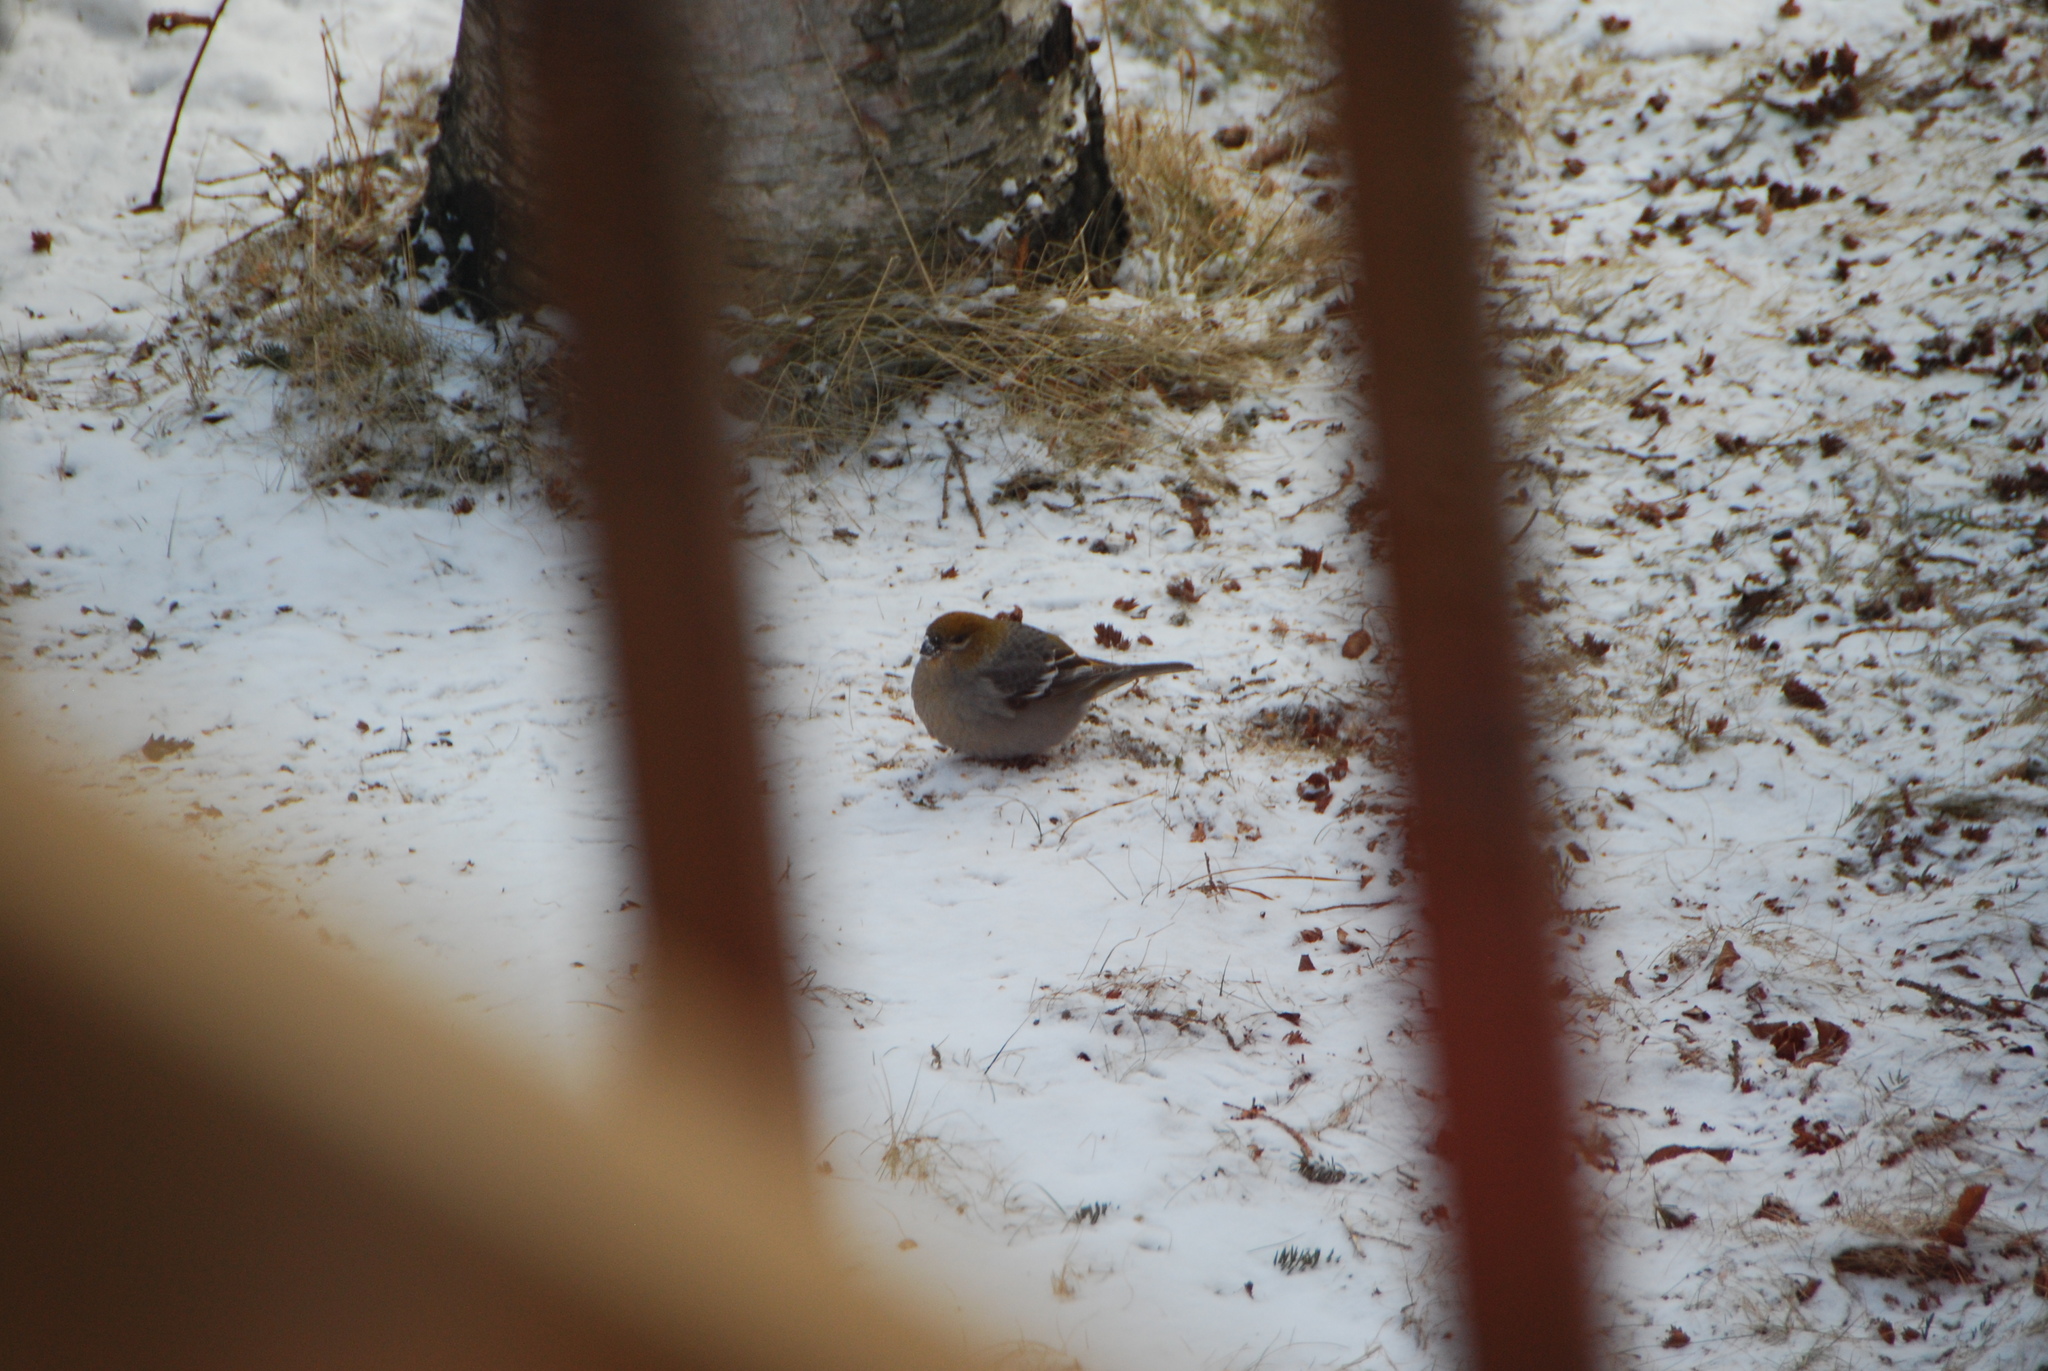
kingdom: Animalia
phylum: Chordata
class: Aves
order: Passeriformes
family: Fringillidae
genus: Pinicola
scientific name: Pinicola enucleator
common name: Pine grosbeak
